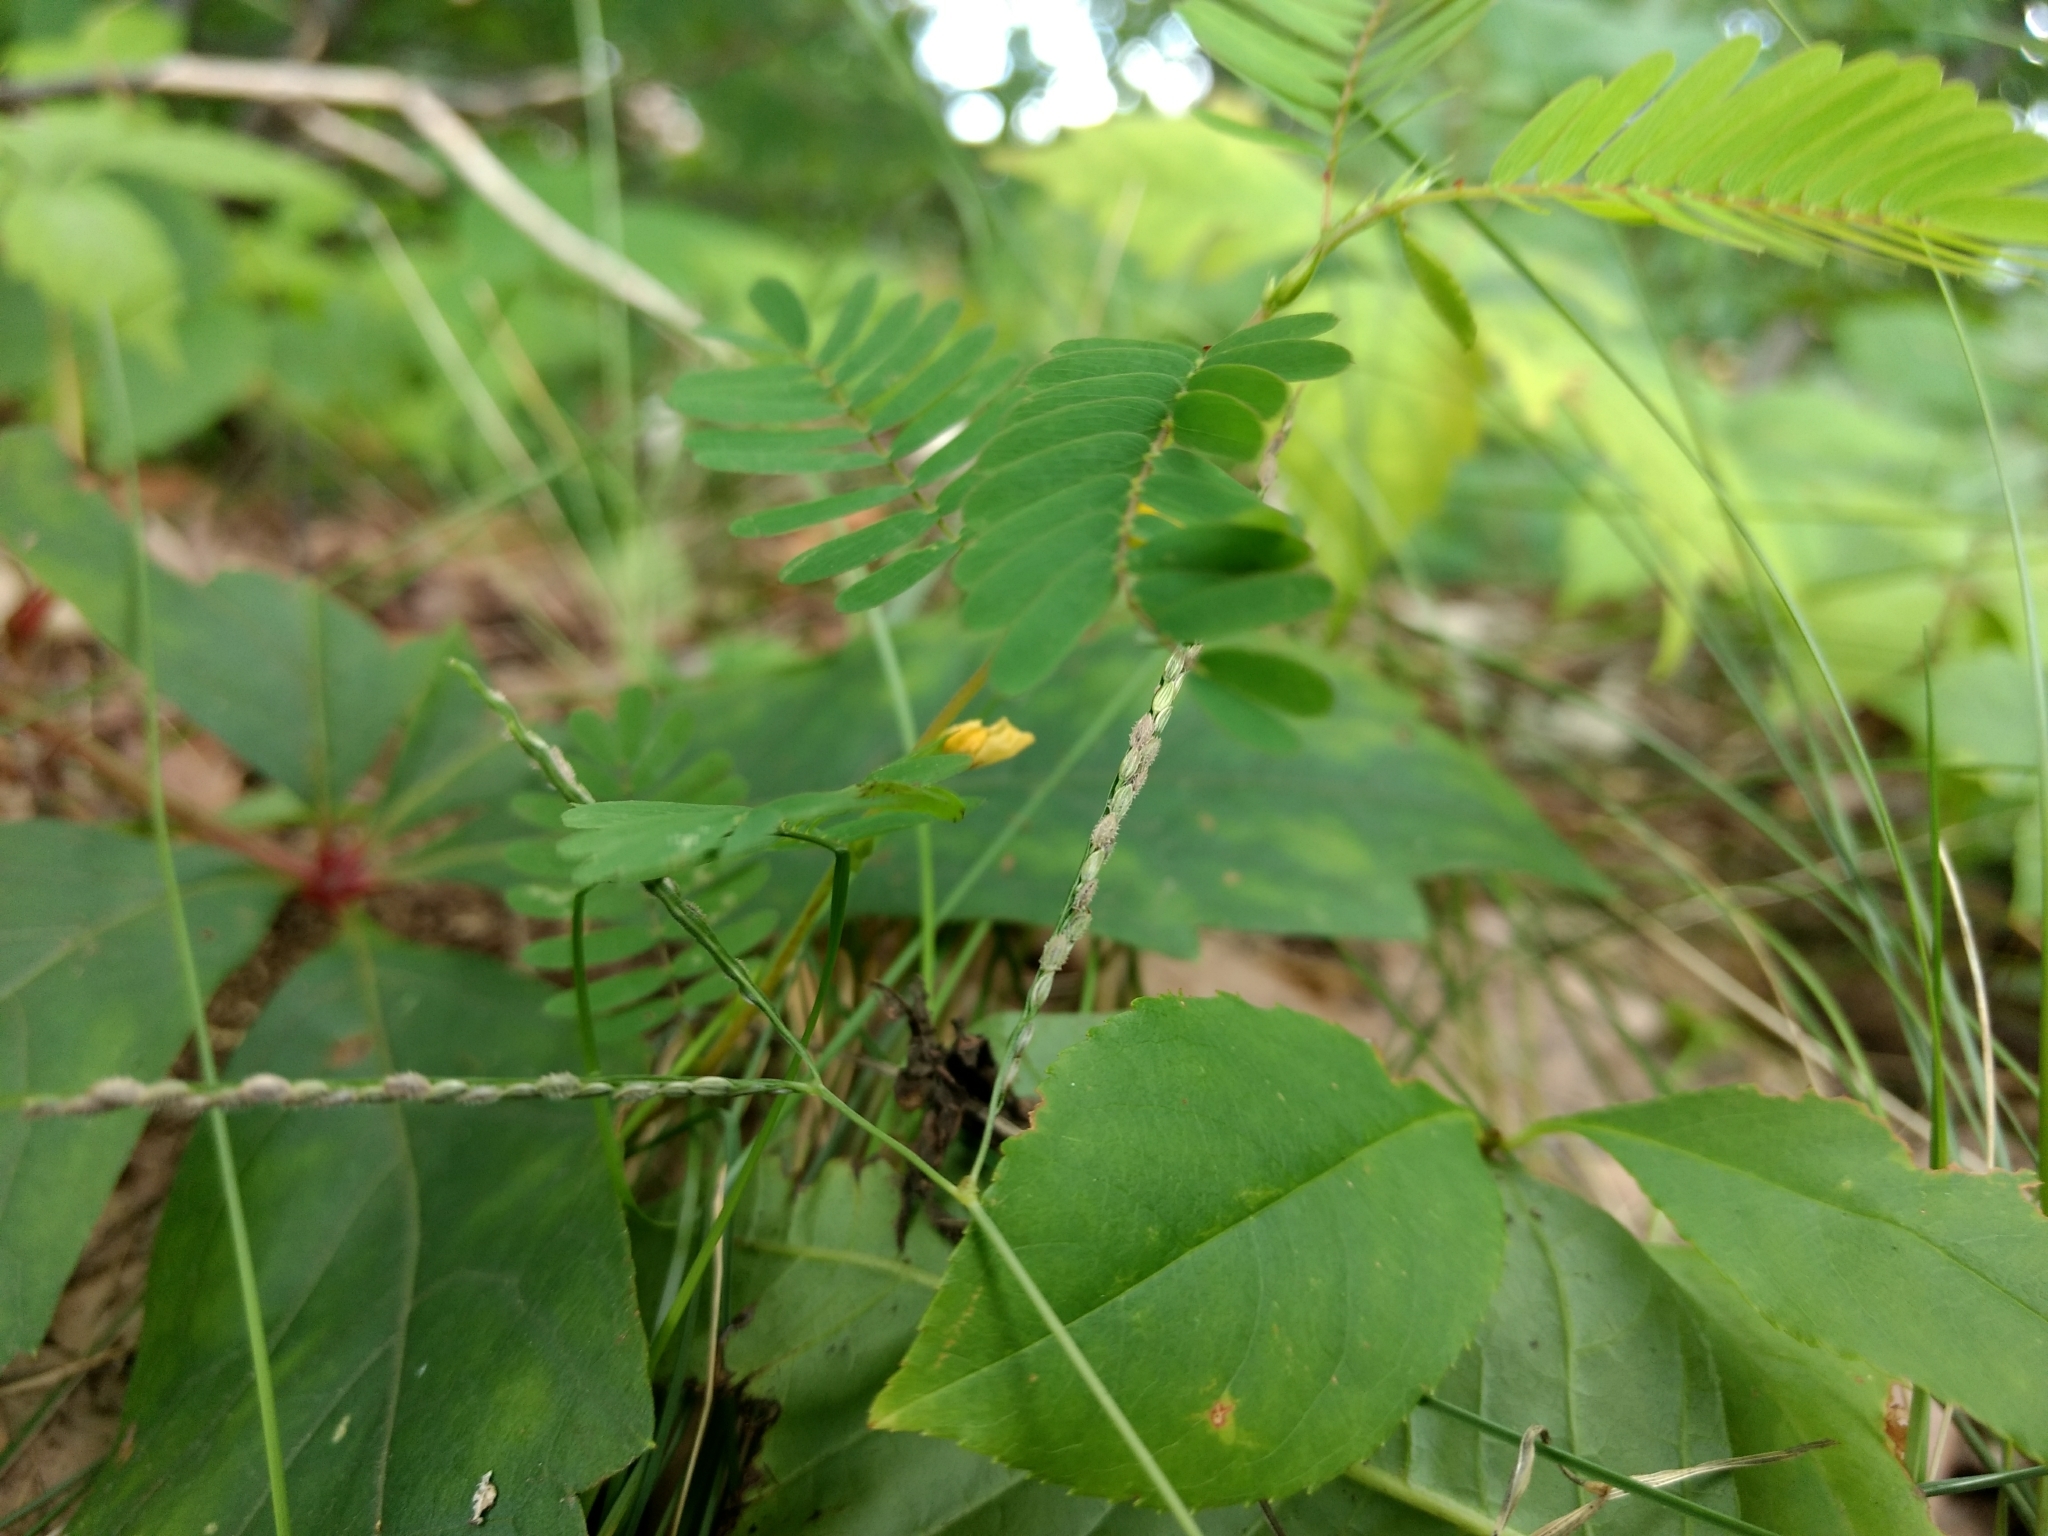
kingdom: Plantae
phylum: Tracheophyta
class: Magnoliopsida
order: Fabales
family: Fabaceae
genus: Chamaecrista
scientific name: Chamaecrista nictitans
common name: Sensitive cassia
